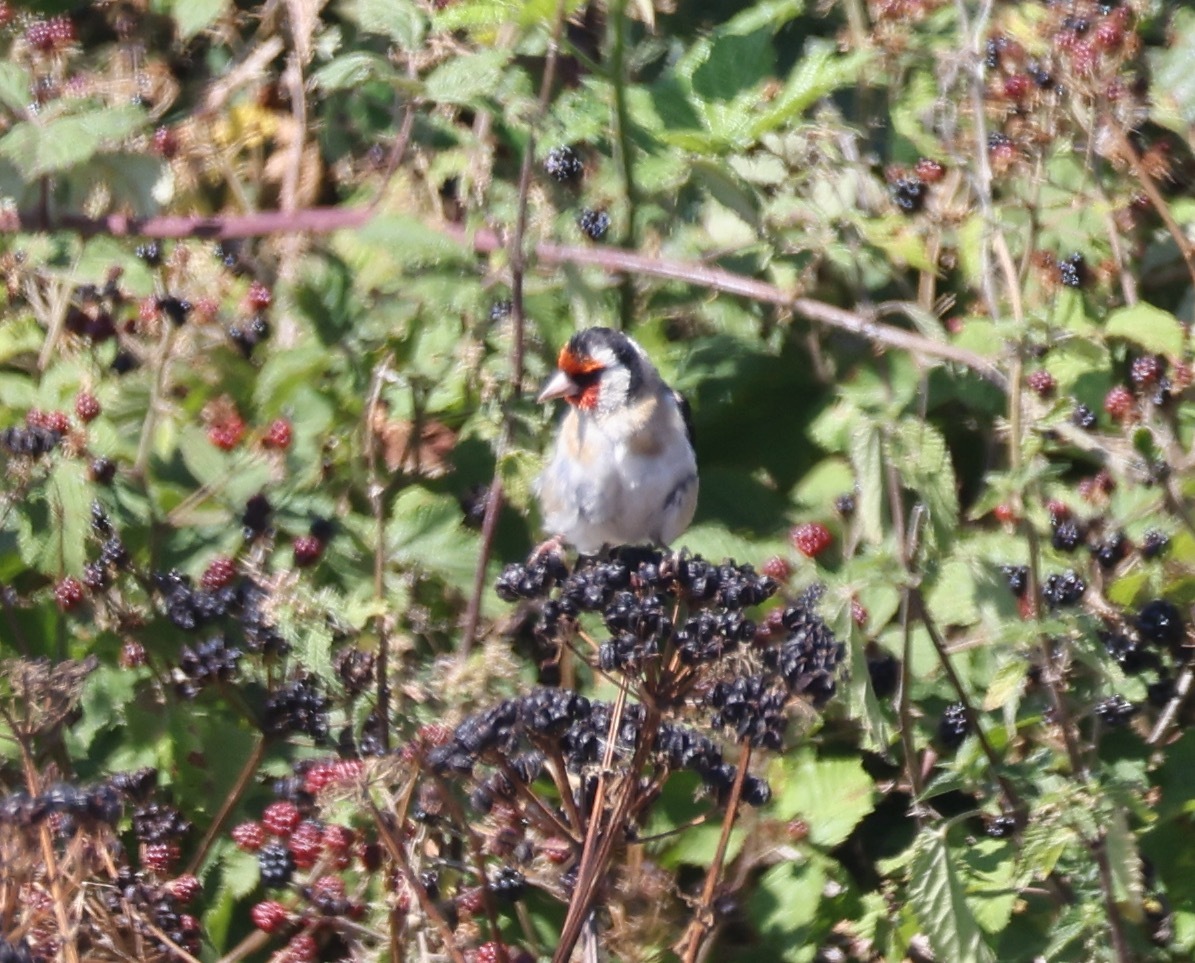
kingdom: Animalia
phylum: Chordata
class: Aves
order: Passeriformes
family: Fringillidae
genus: Carduelis
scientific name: Carduelis carduelis
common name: European goldfinch
